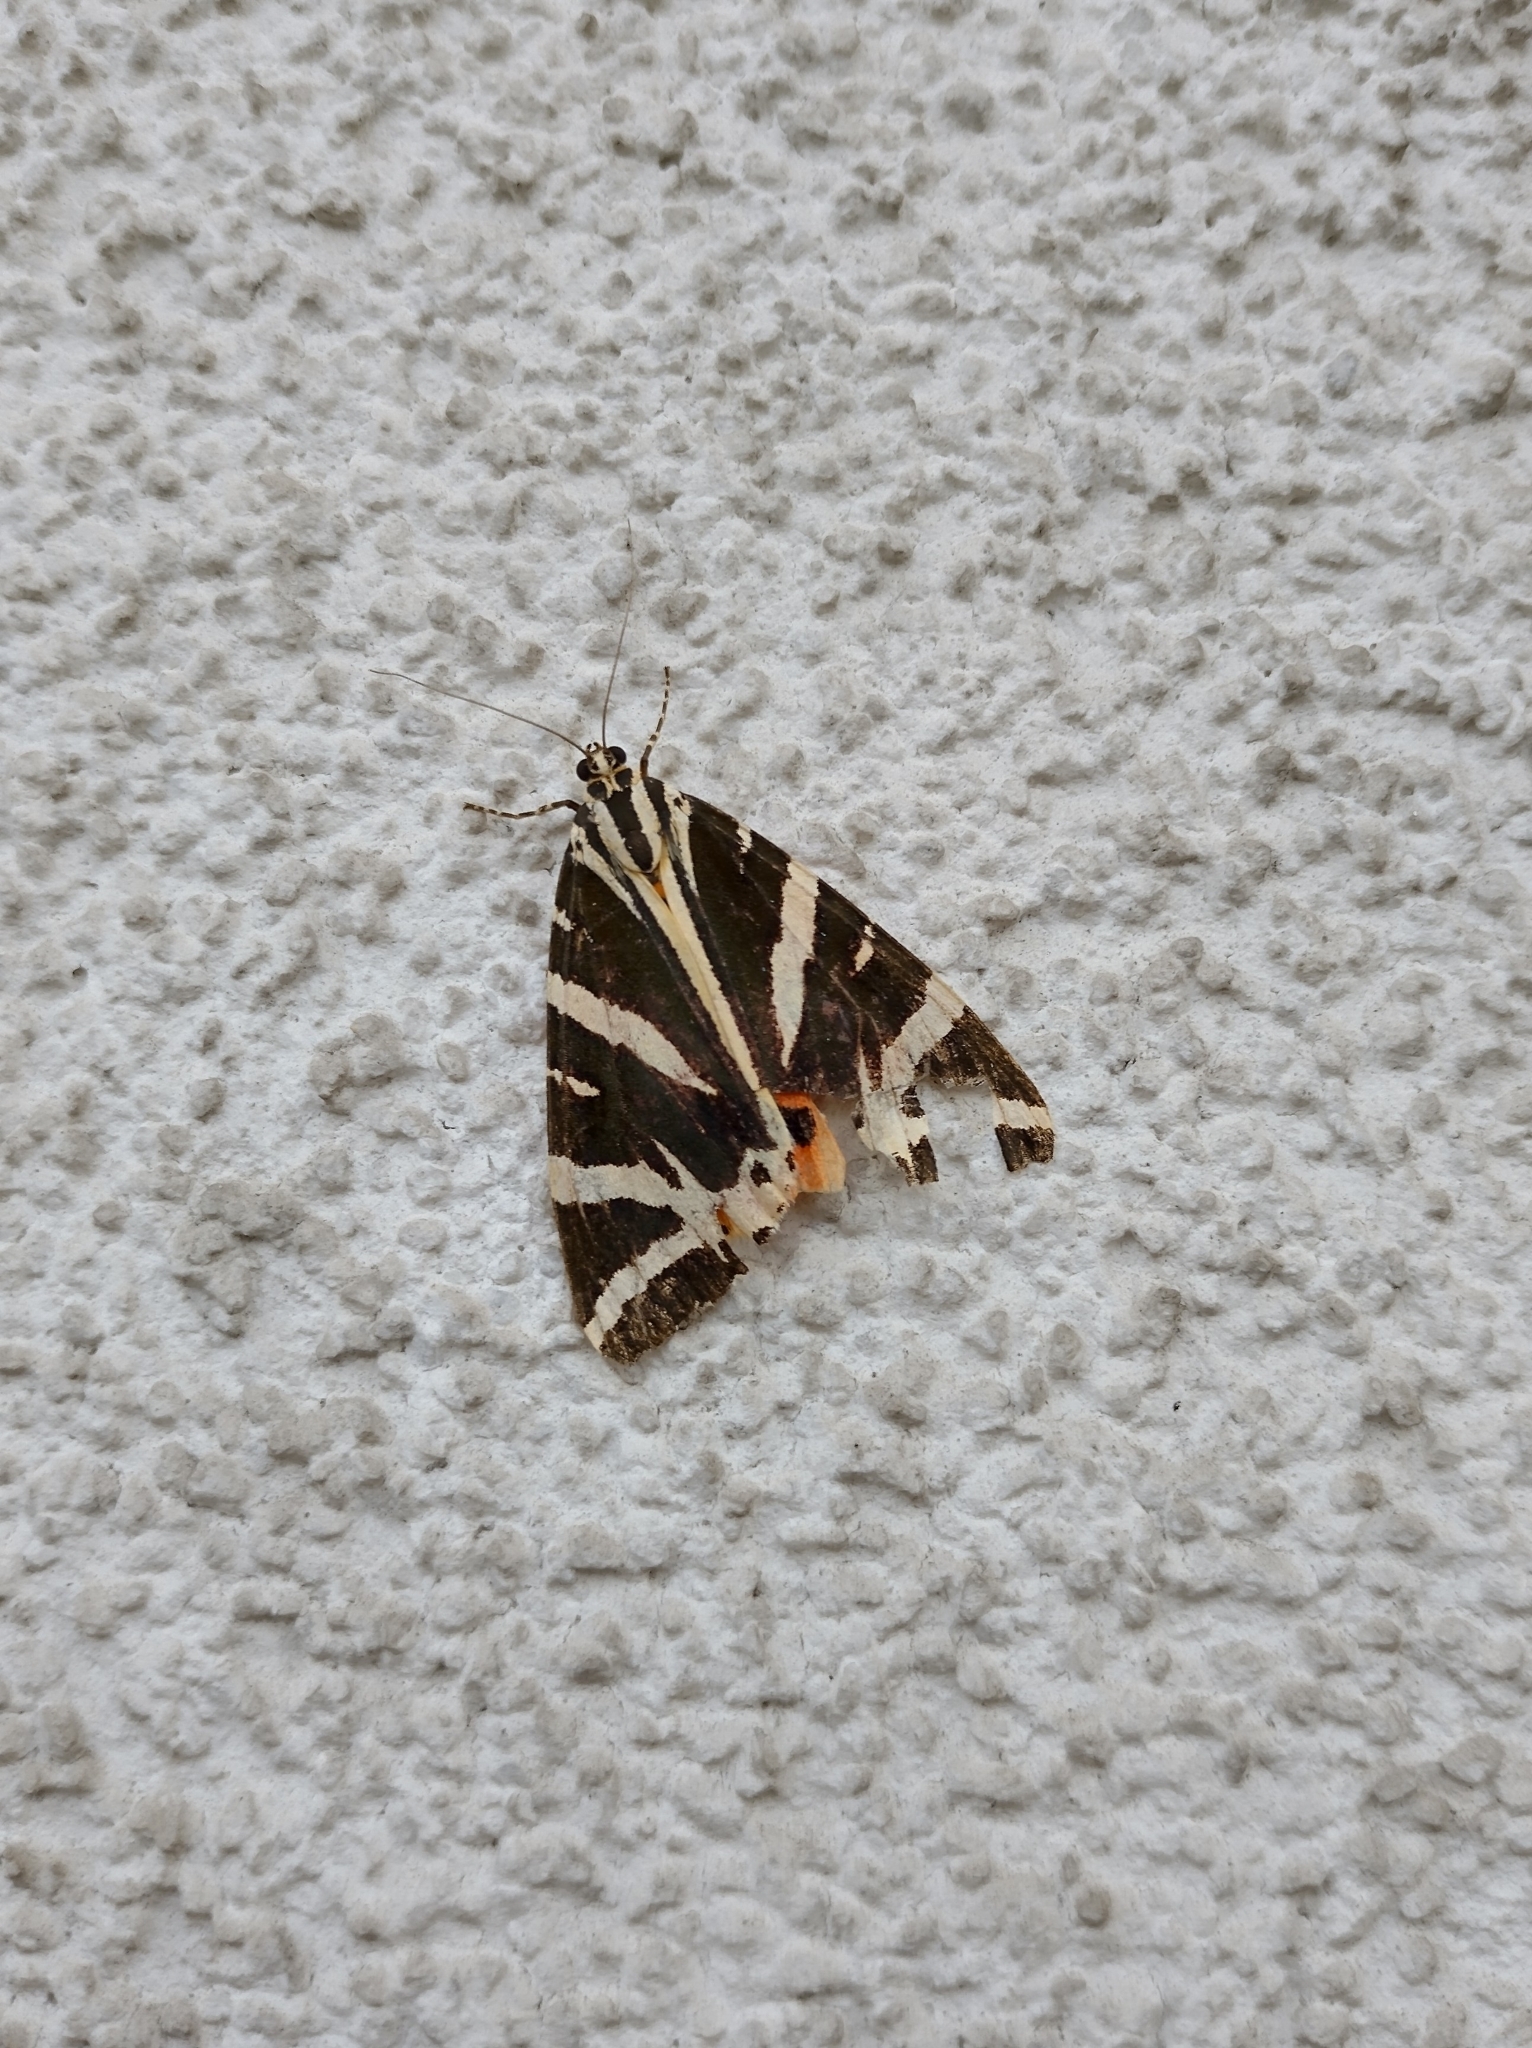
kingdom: Animalia
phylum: Arthropoda
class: Insecta
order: Lepidoptera
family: Erebidae
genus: Euplagia
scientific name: Euplagia quadripunctaria
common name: Jersey tiger
